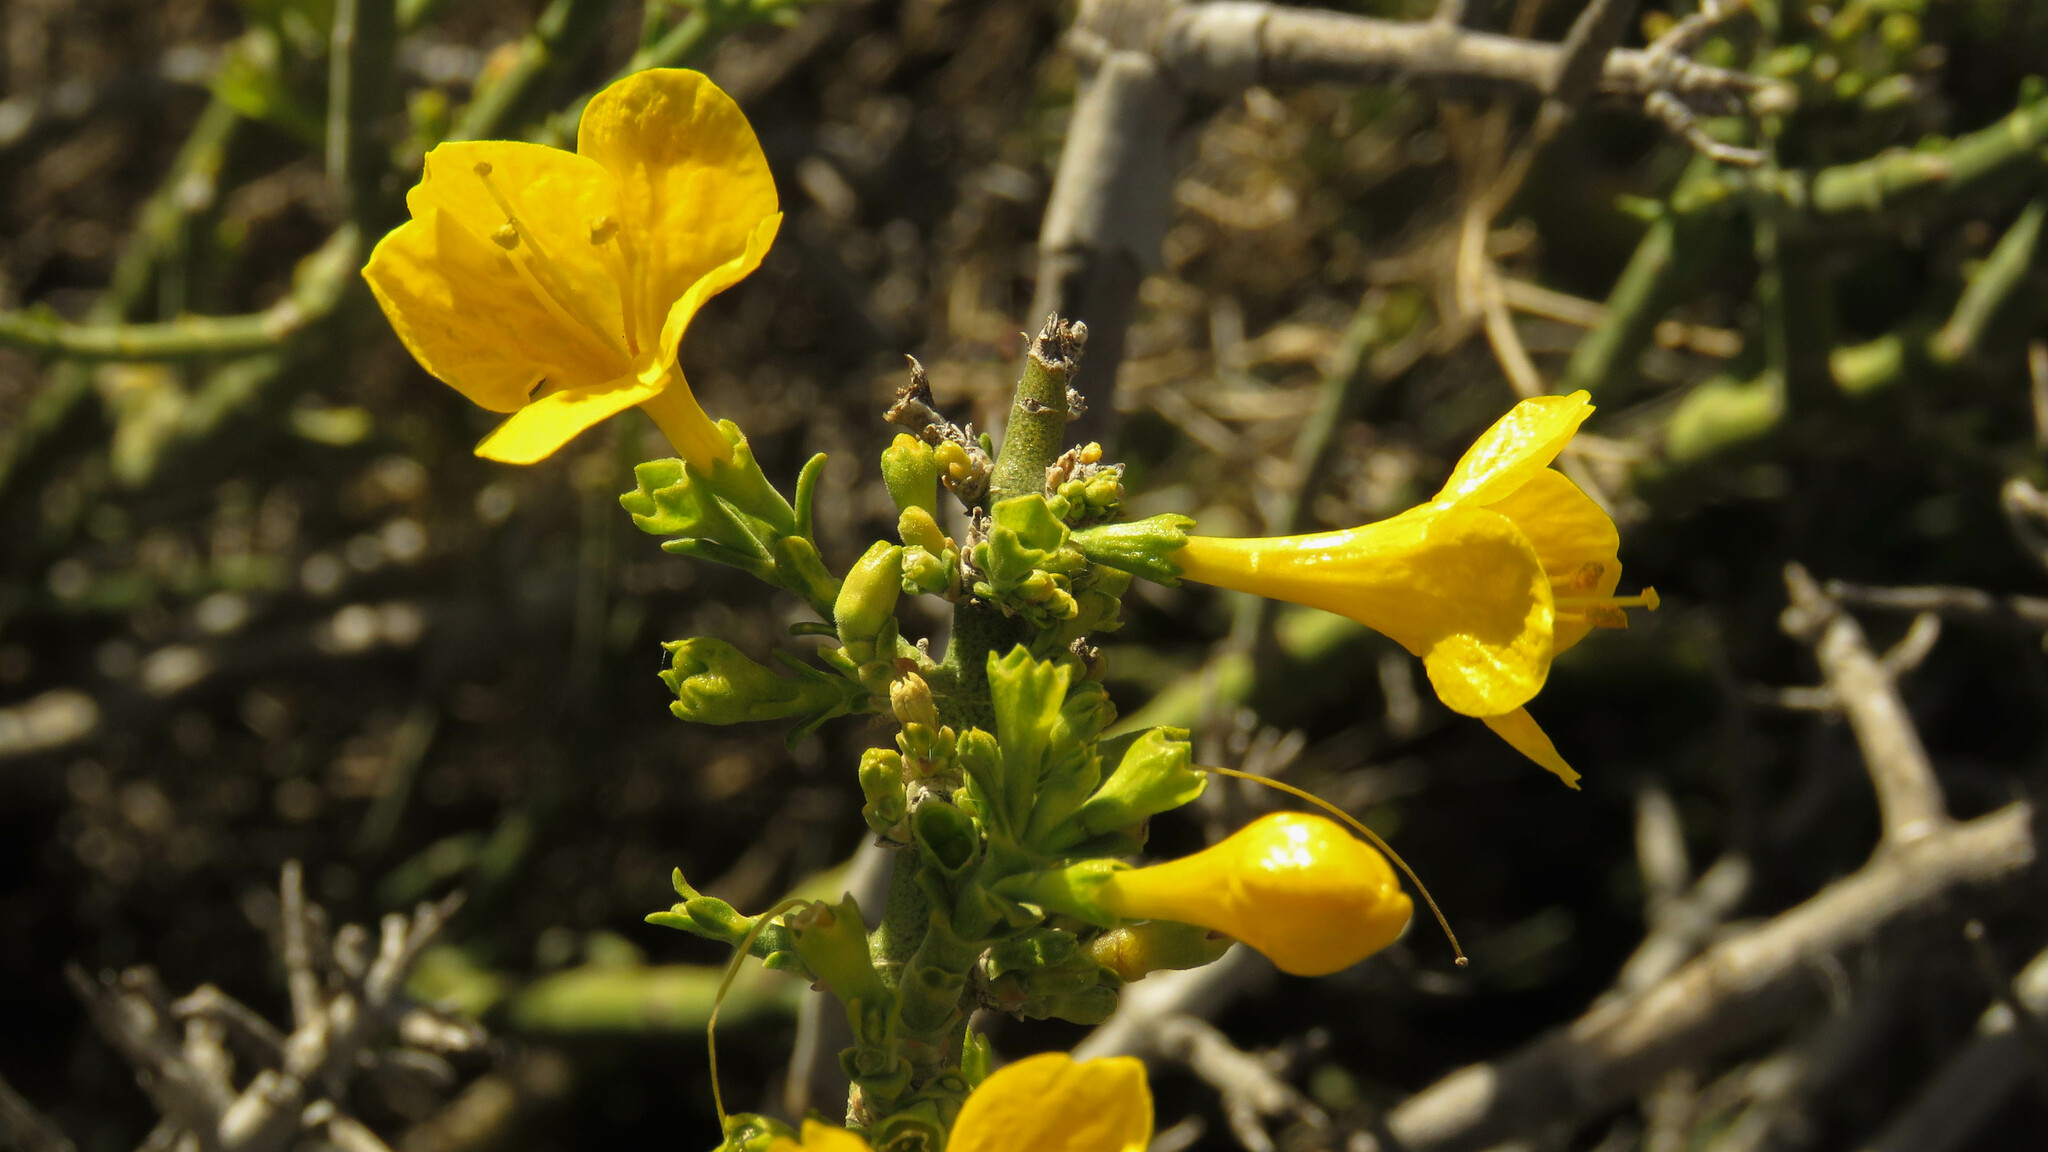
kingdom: Plantae
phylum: Tracheophyta
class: Magnoliopsida
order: Lamiales
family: Oleaceae
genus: Menodora
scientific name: Menodora robusta
